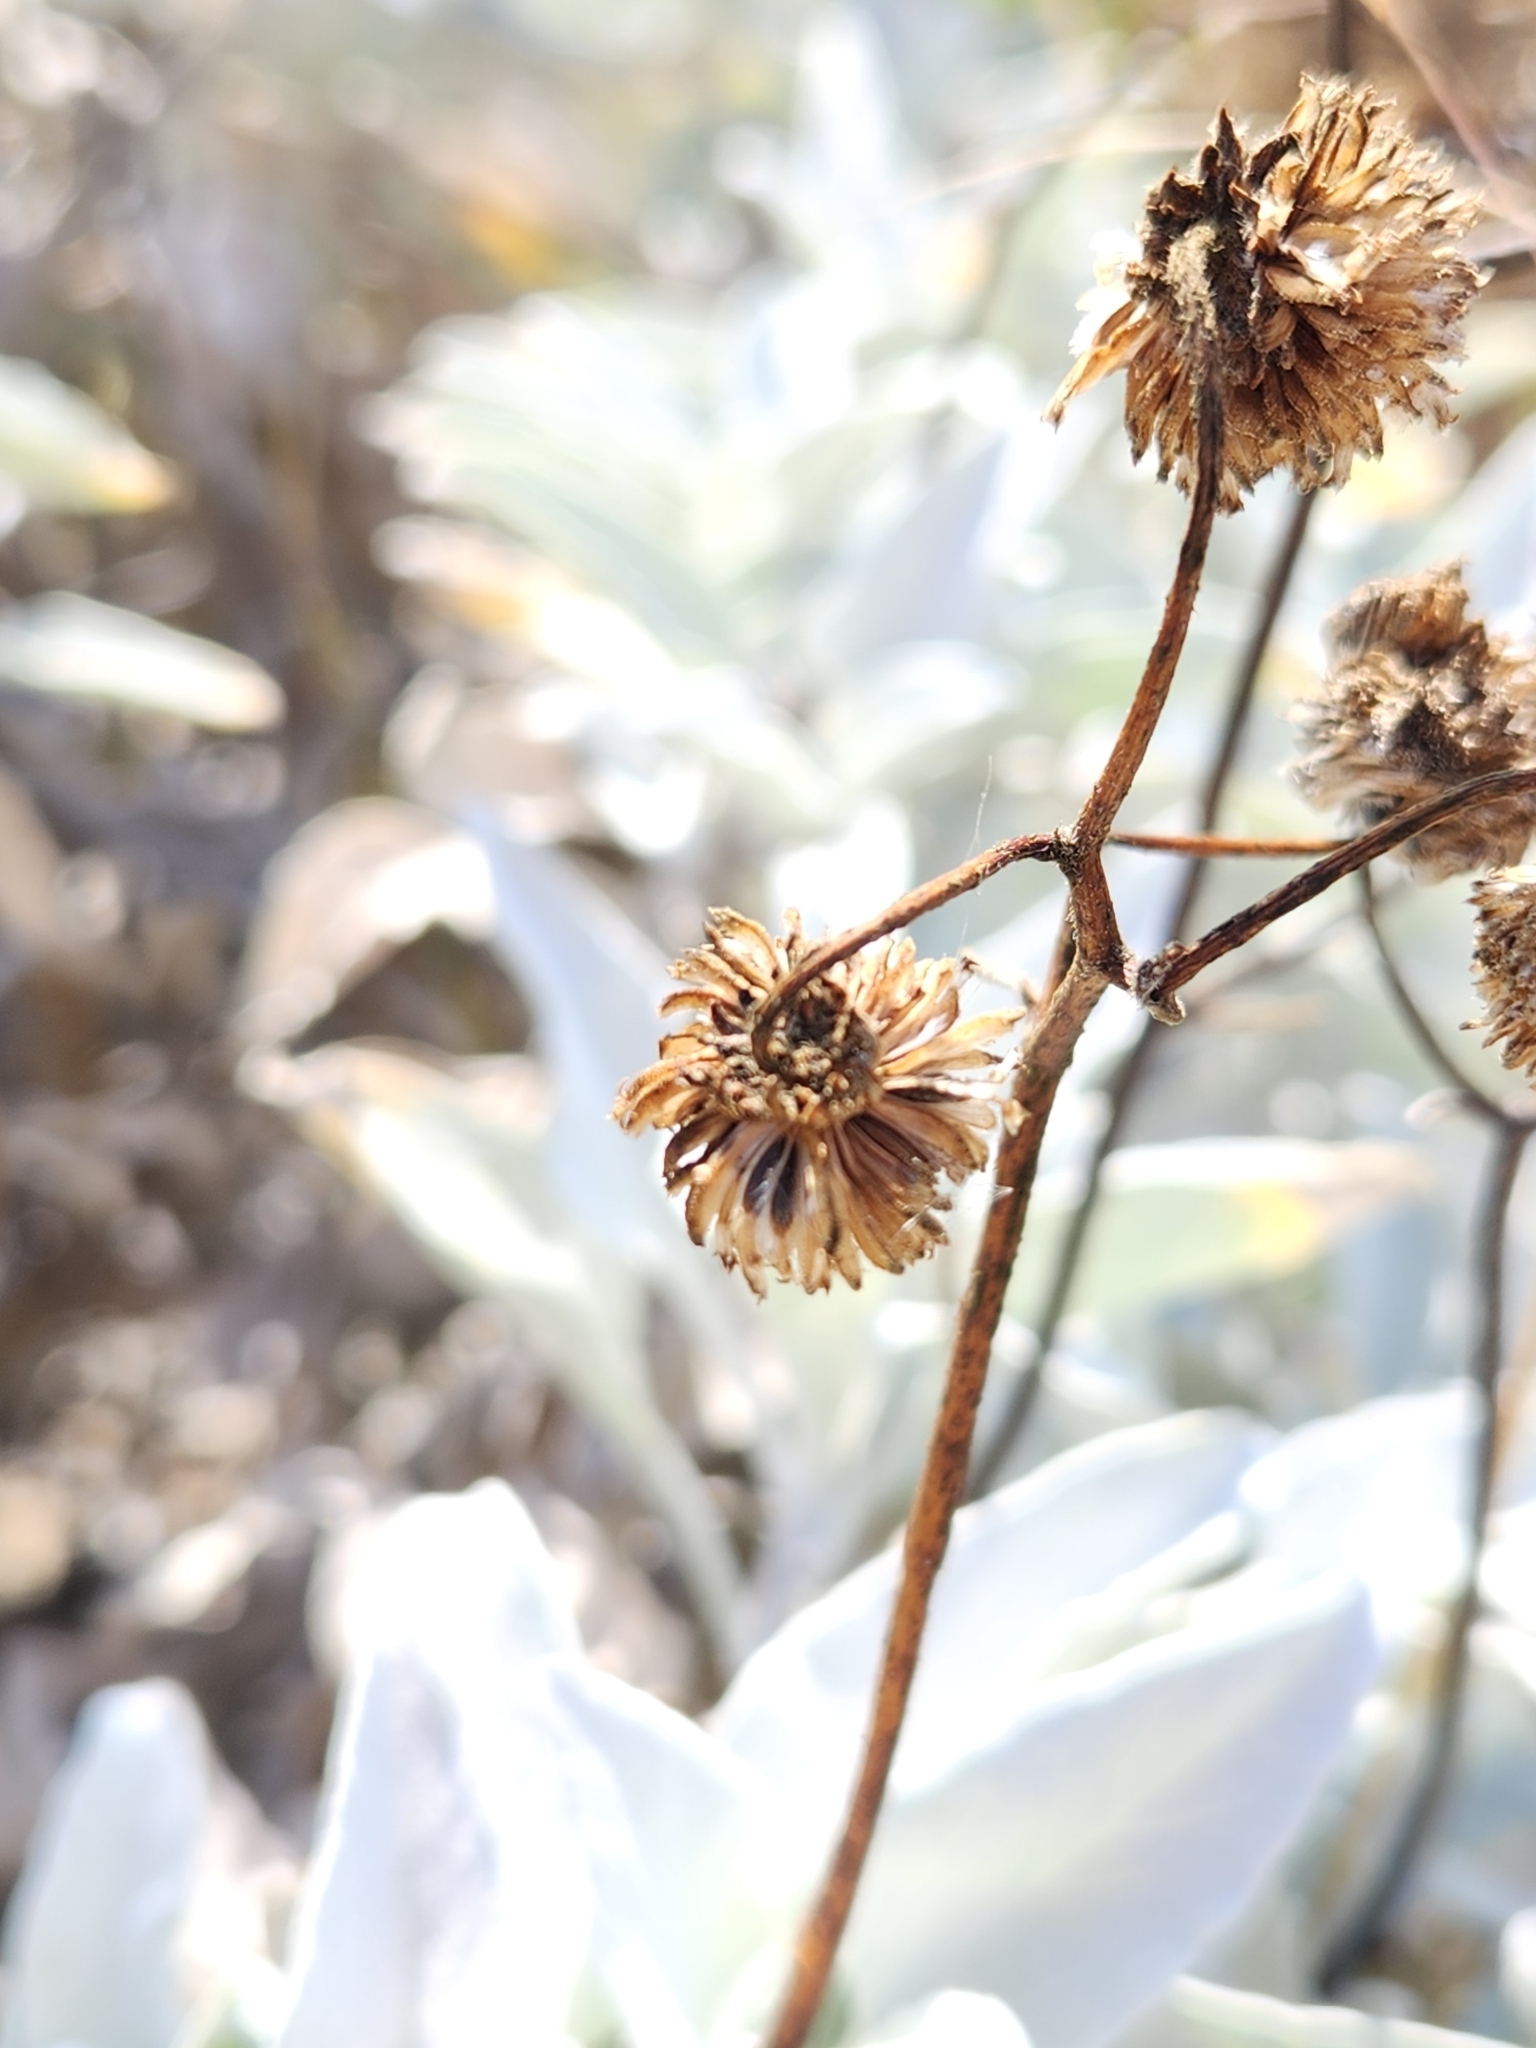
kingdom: Plantae
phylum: Tracheophyta
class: Magnoliopsida
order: Asterales
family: Asteraceae
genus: Encelia
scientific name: Encelia farinosa
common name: Brittlebush
